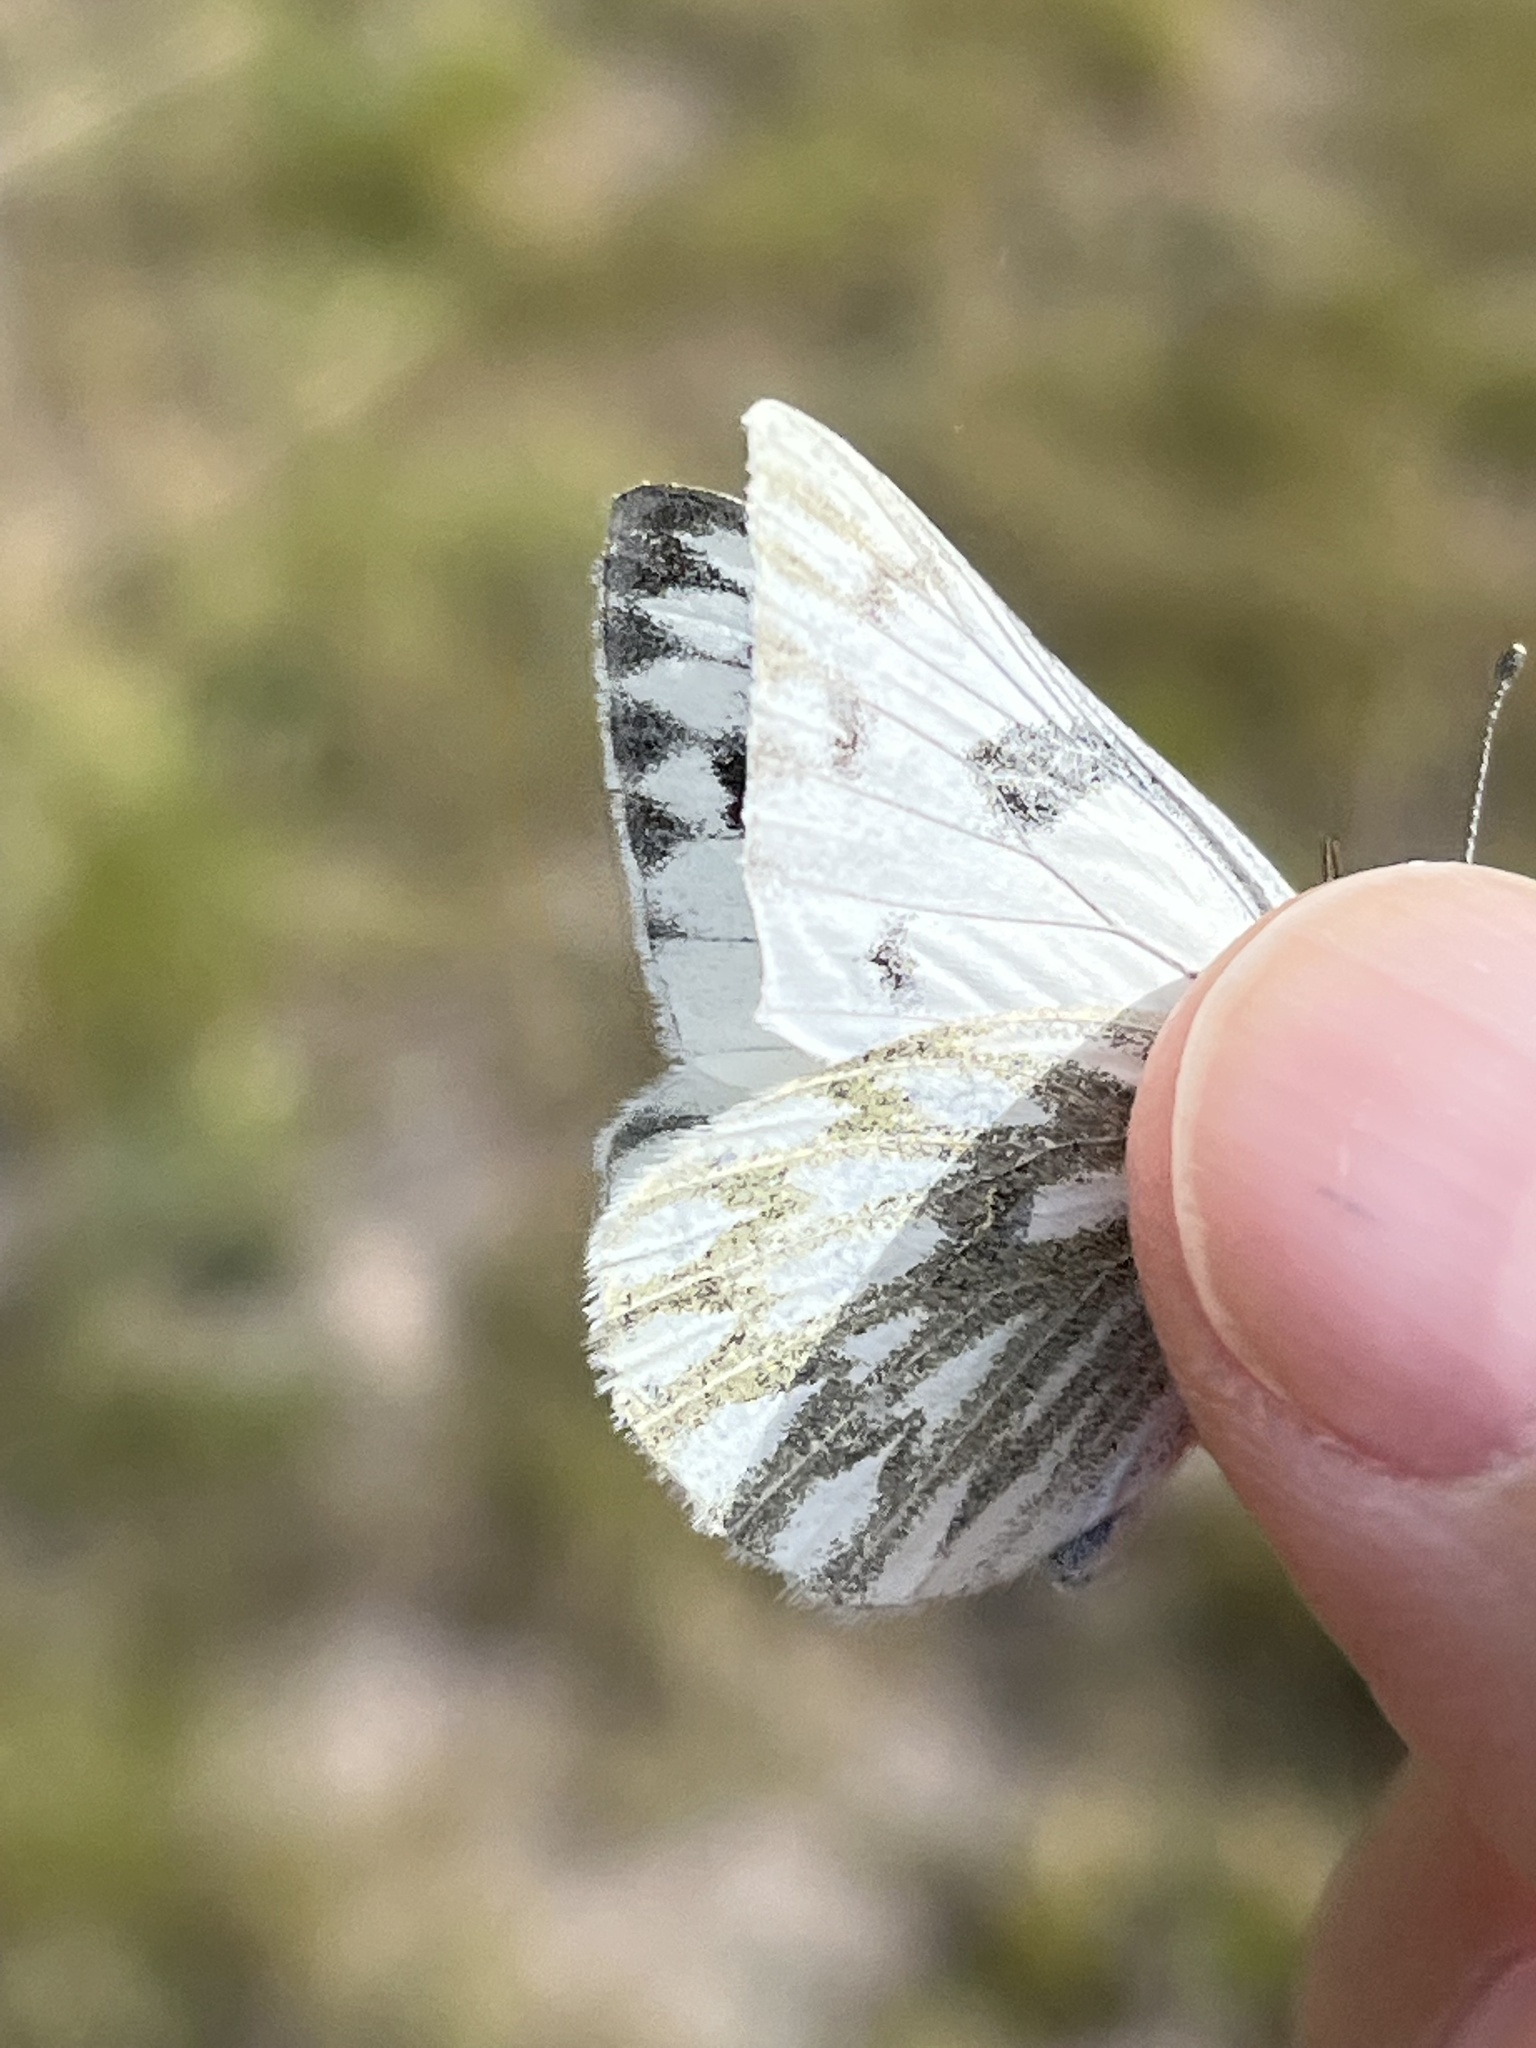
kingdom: Animalia
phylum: Arthropoda
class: Insecta
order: Lepidoptera
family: Pieridae
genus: Pontia
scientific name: Pontia occidentalis
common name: Western white
